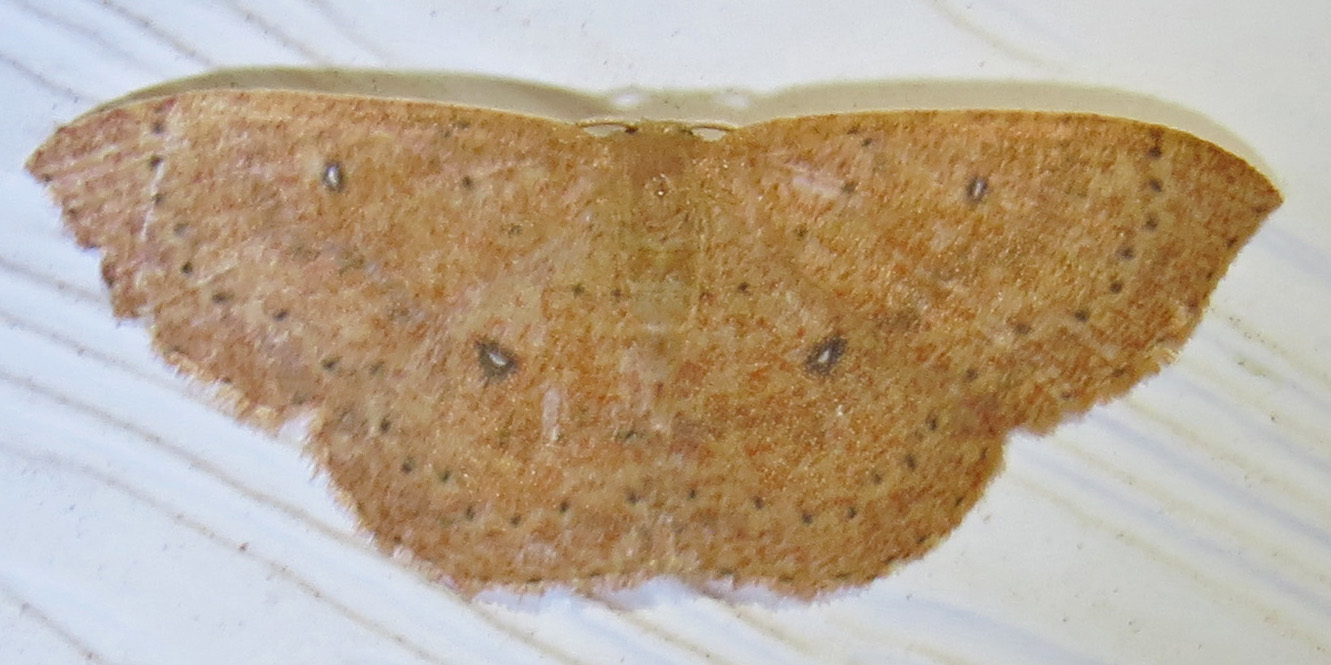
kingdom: Animalia
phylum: Arthropoda
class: Insecta
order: Lepidoptera
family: Geometridae
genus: Cyclophora
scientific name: Cyclophora packardi
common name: Packard's wave
